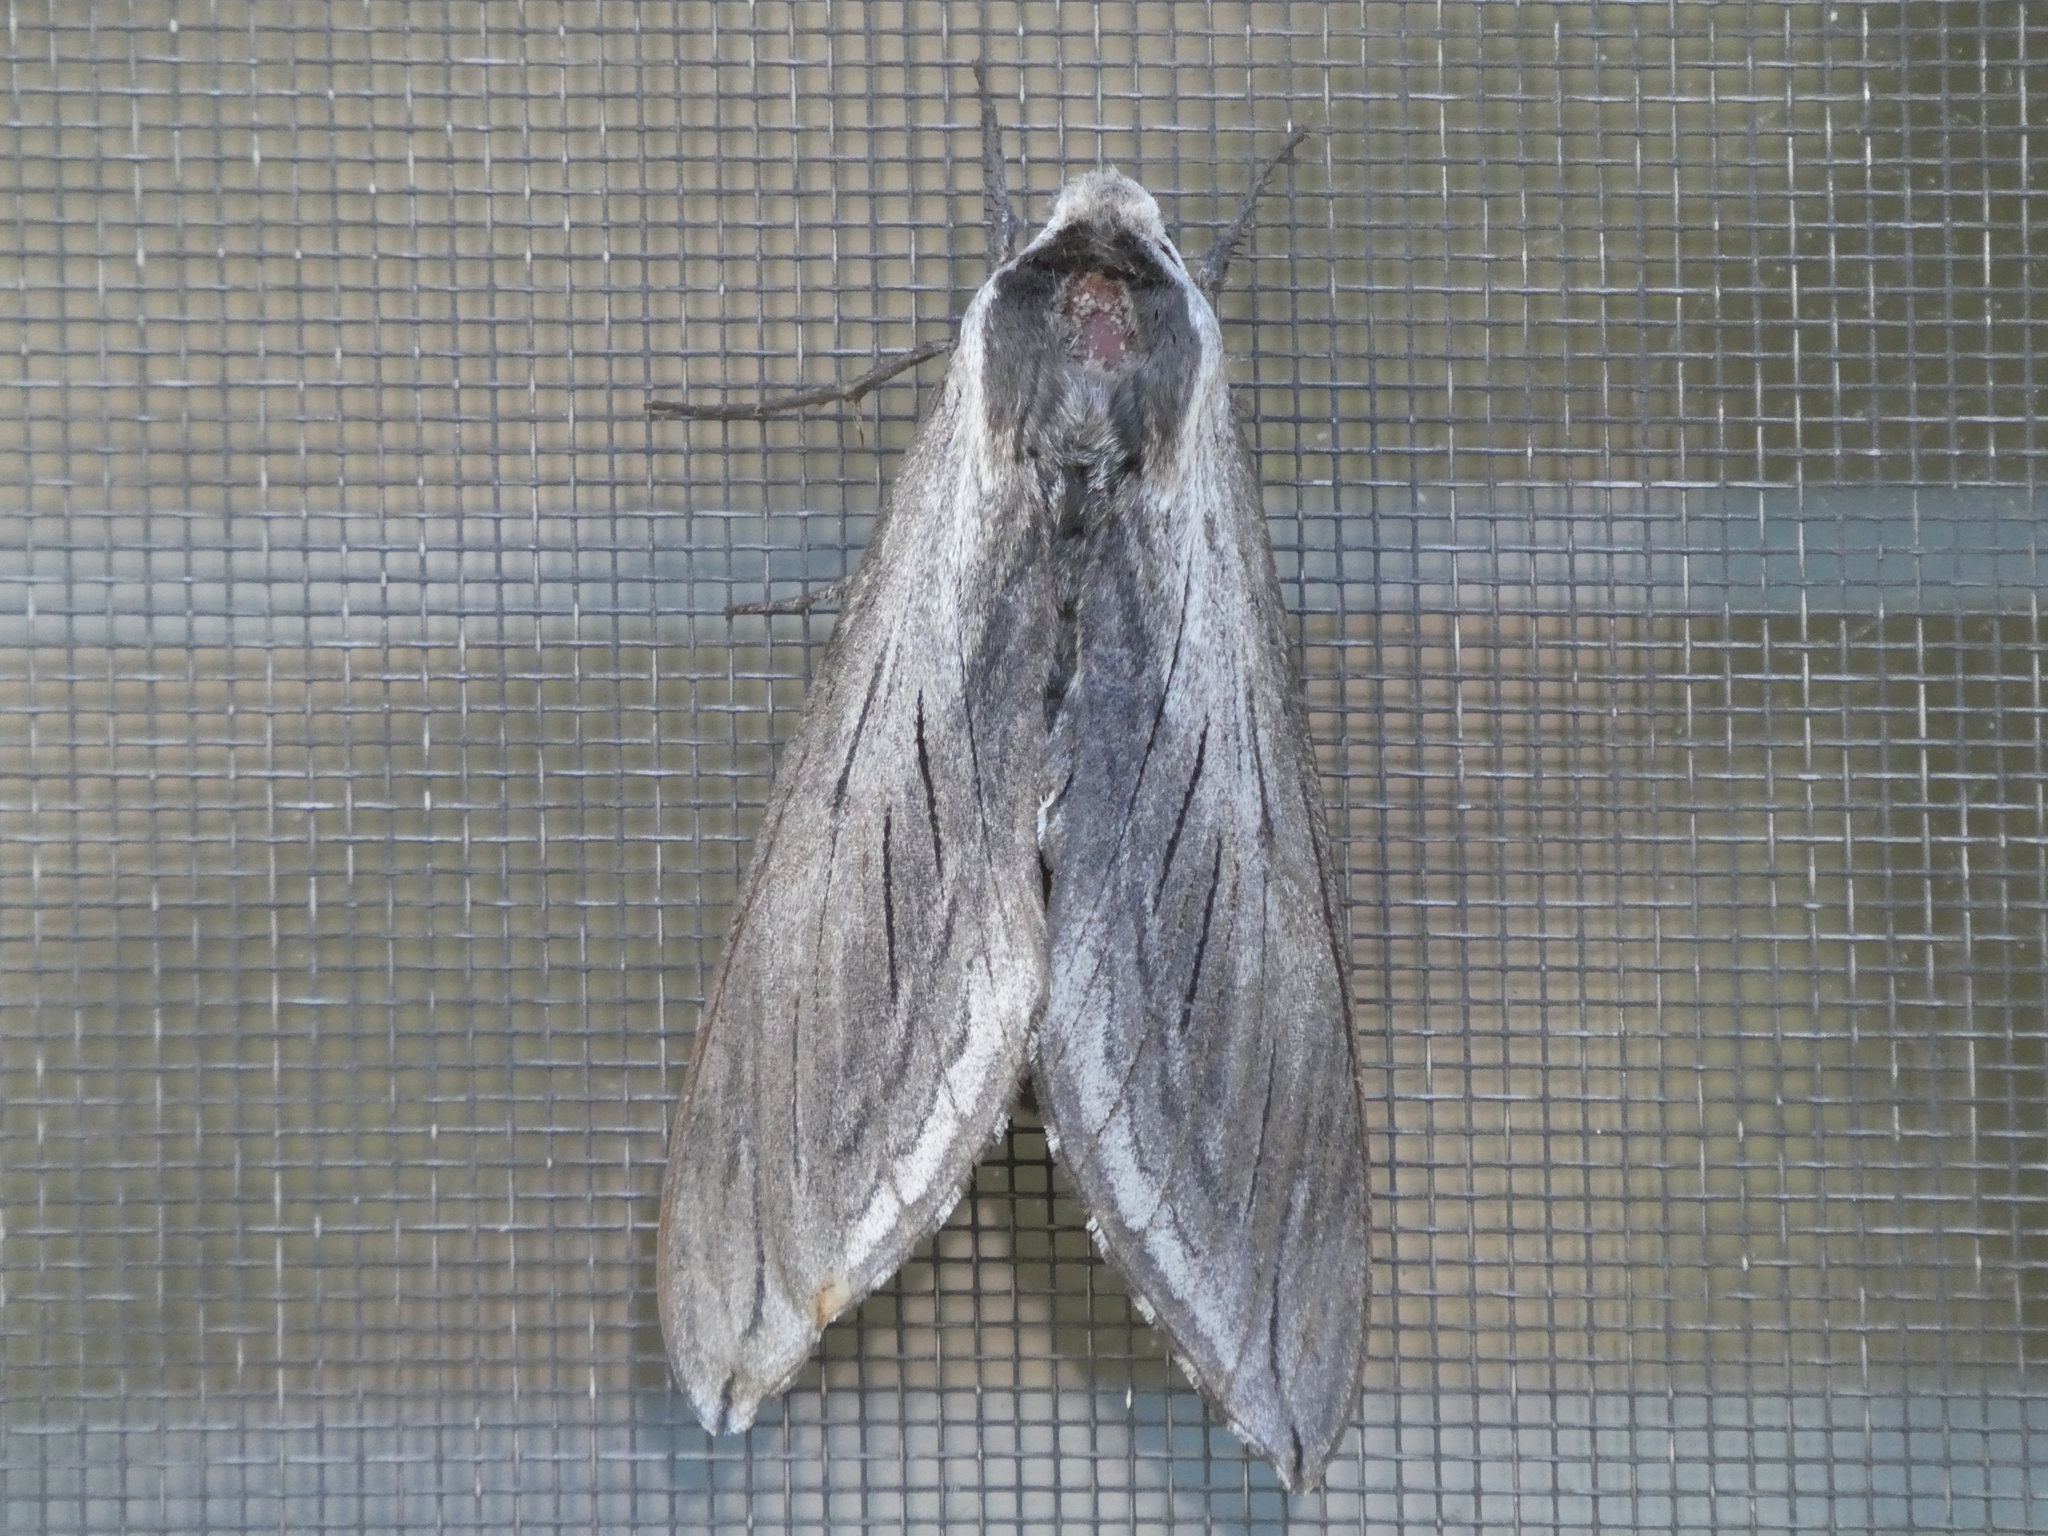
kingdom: Animalia
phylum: Arthropoda
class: Insecta
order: Lepidoptera
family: Sphingidae
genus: Sphinx
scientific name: Sphinx perelegans
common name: Elegant sphinx
